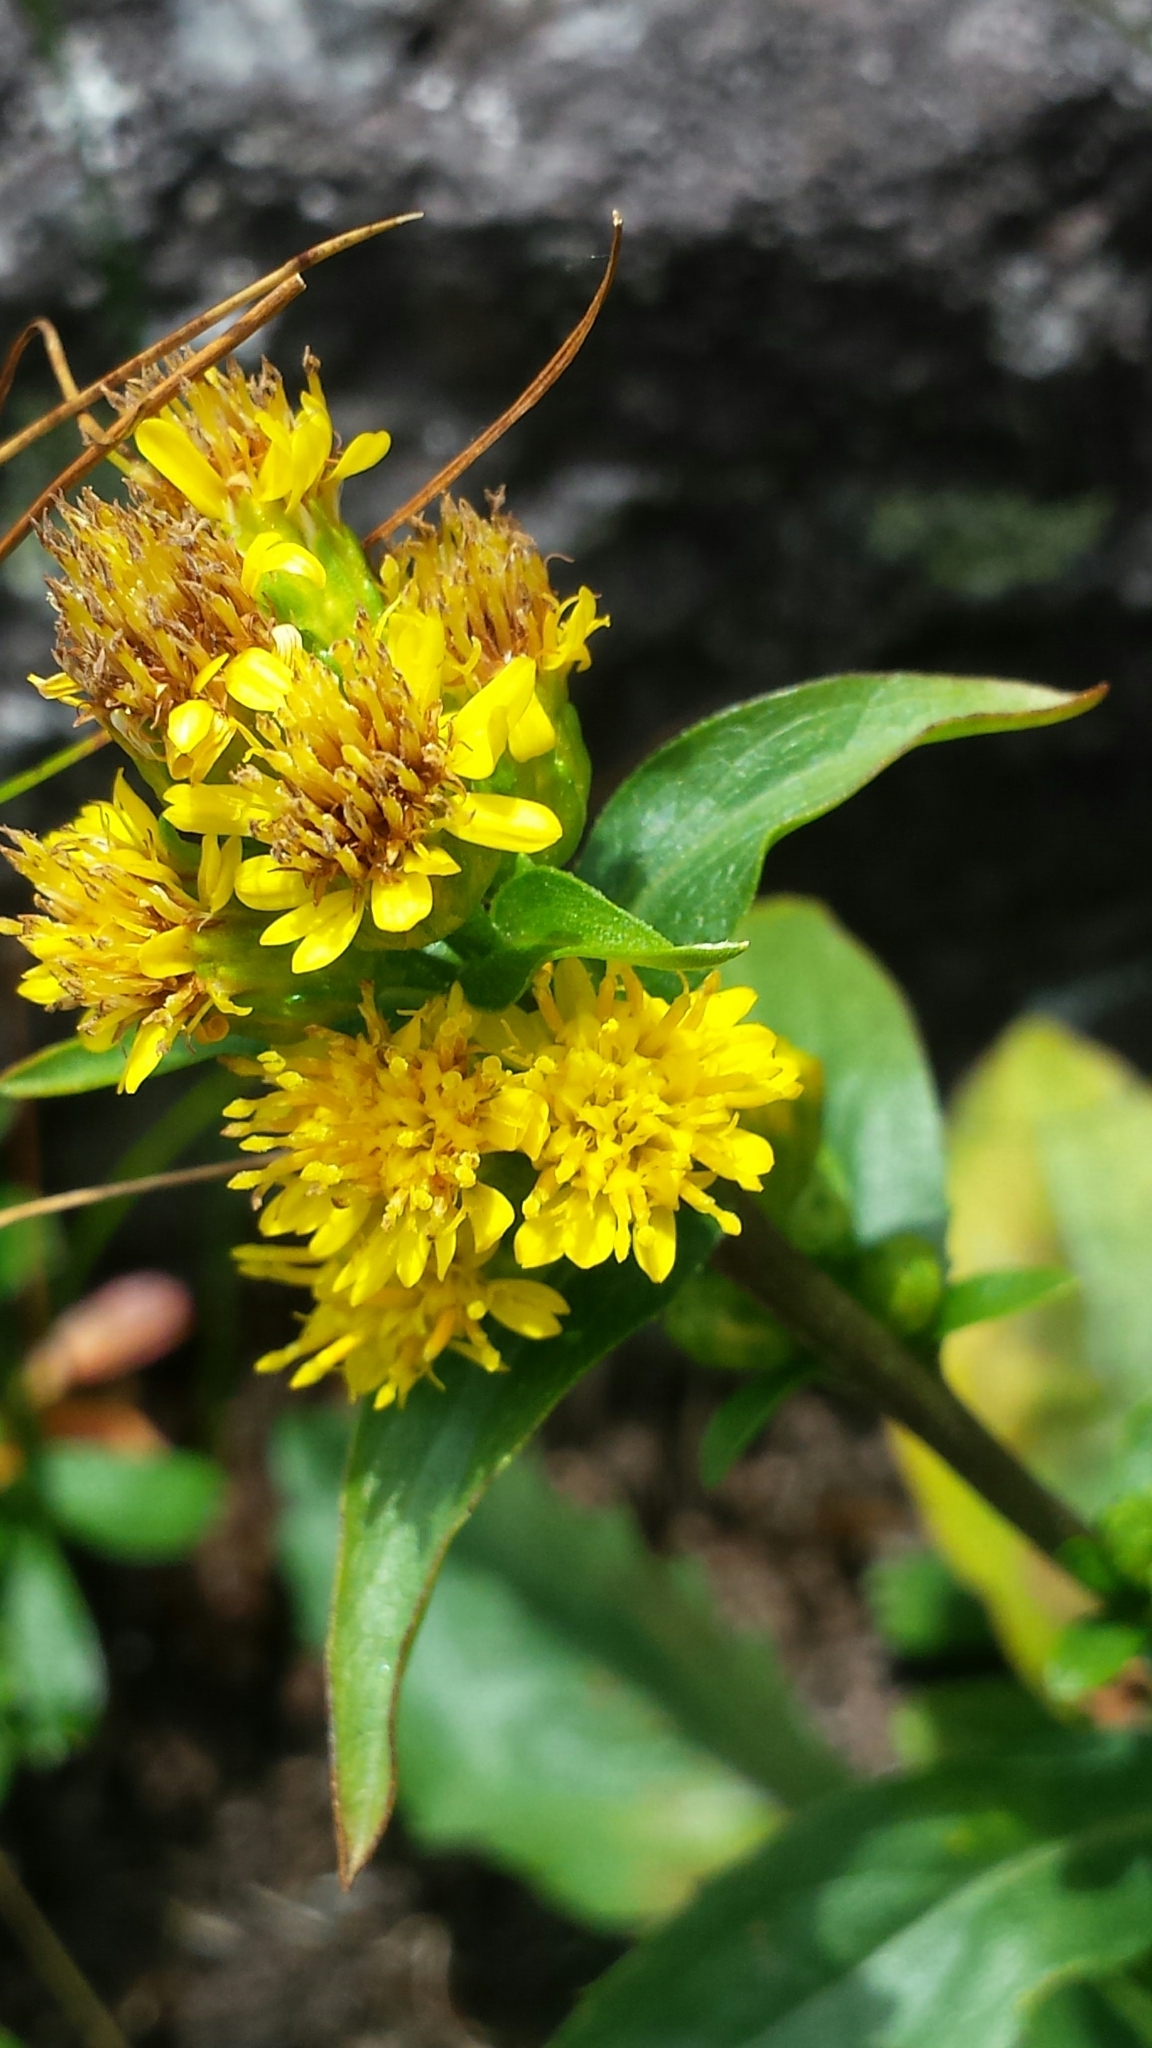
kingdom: Plantae
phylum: Tracheophyta
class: Magnoliopsida
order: Asterales
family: Asteraceae
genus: Solidago
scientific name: Solidago leiocarpa
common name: Cutler's alpine goldenrod
